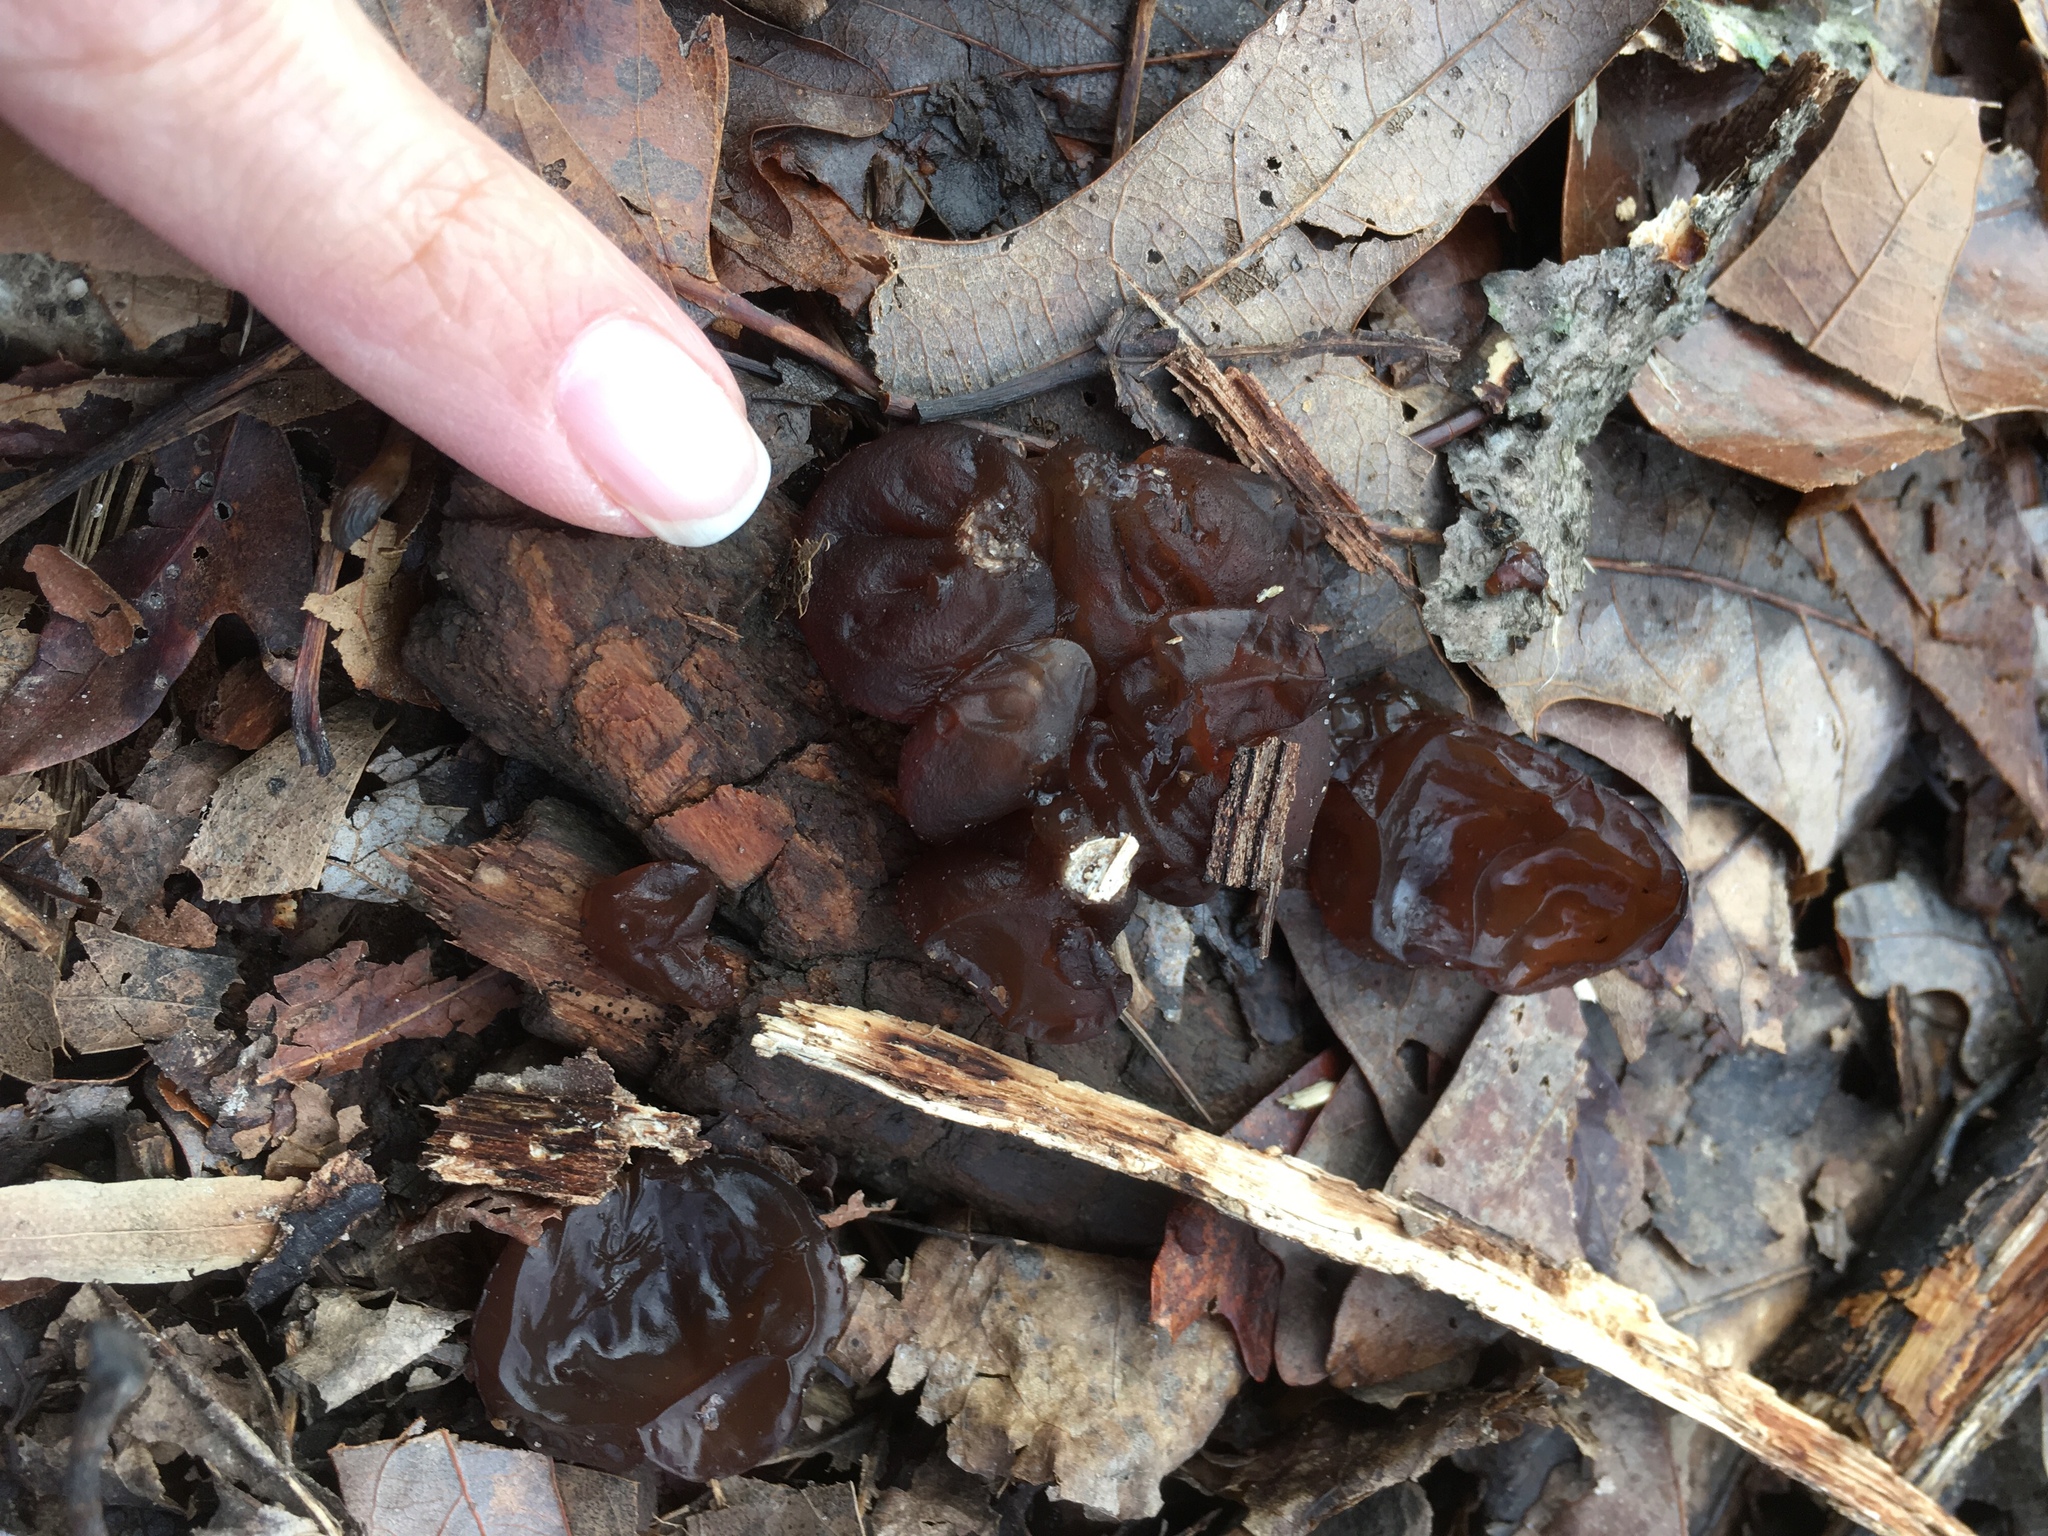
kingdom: Fungi
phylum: Basidiomycota
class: Agaricomycetes
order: Auriculariales
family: Auriculariaceae
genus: Exidia
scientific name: Exidia
